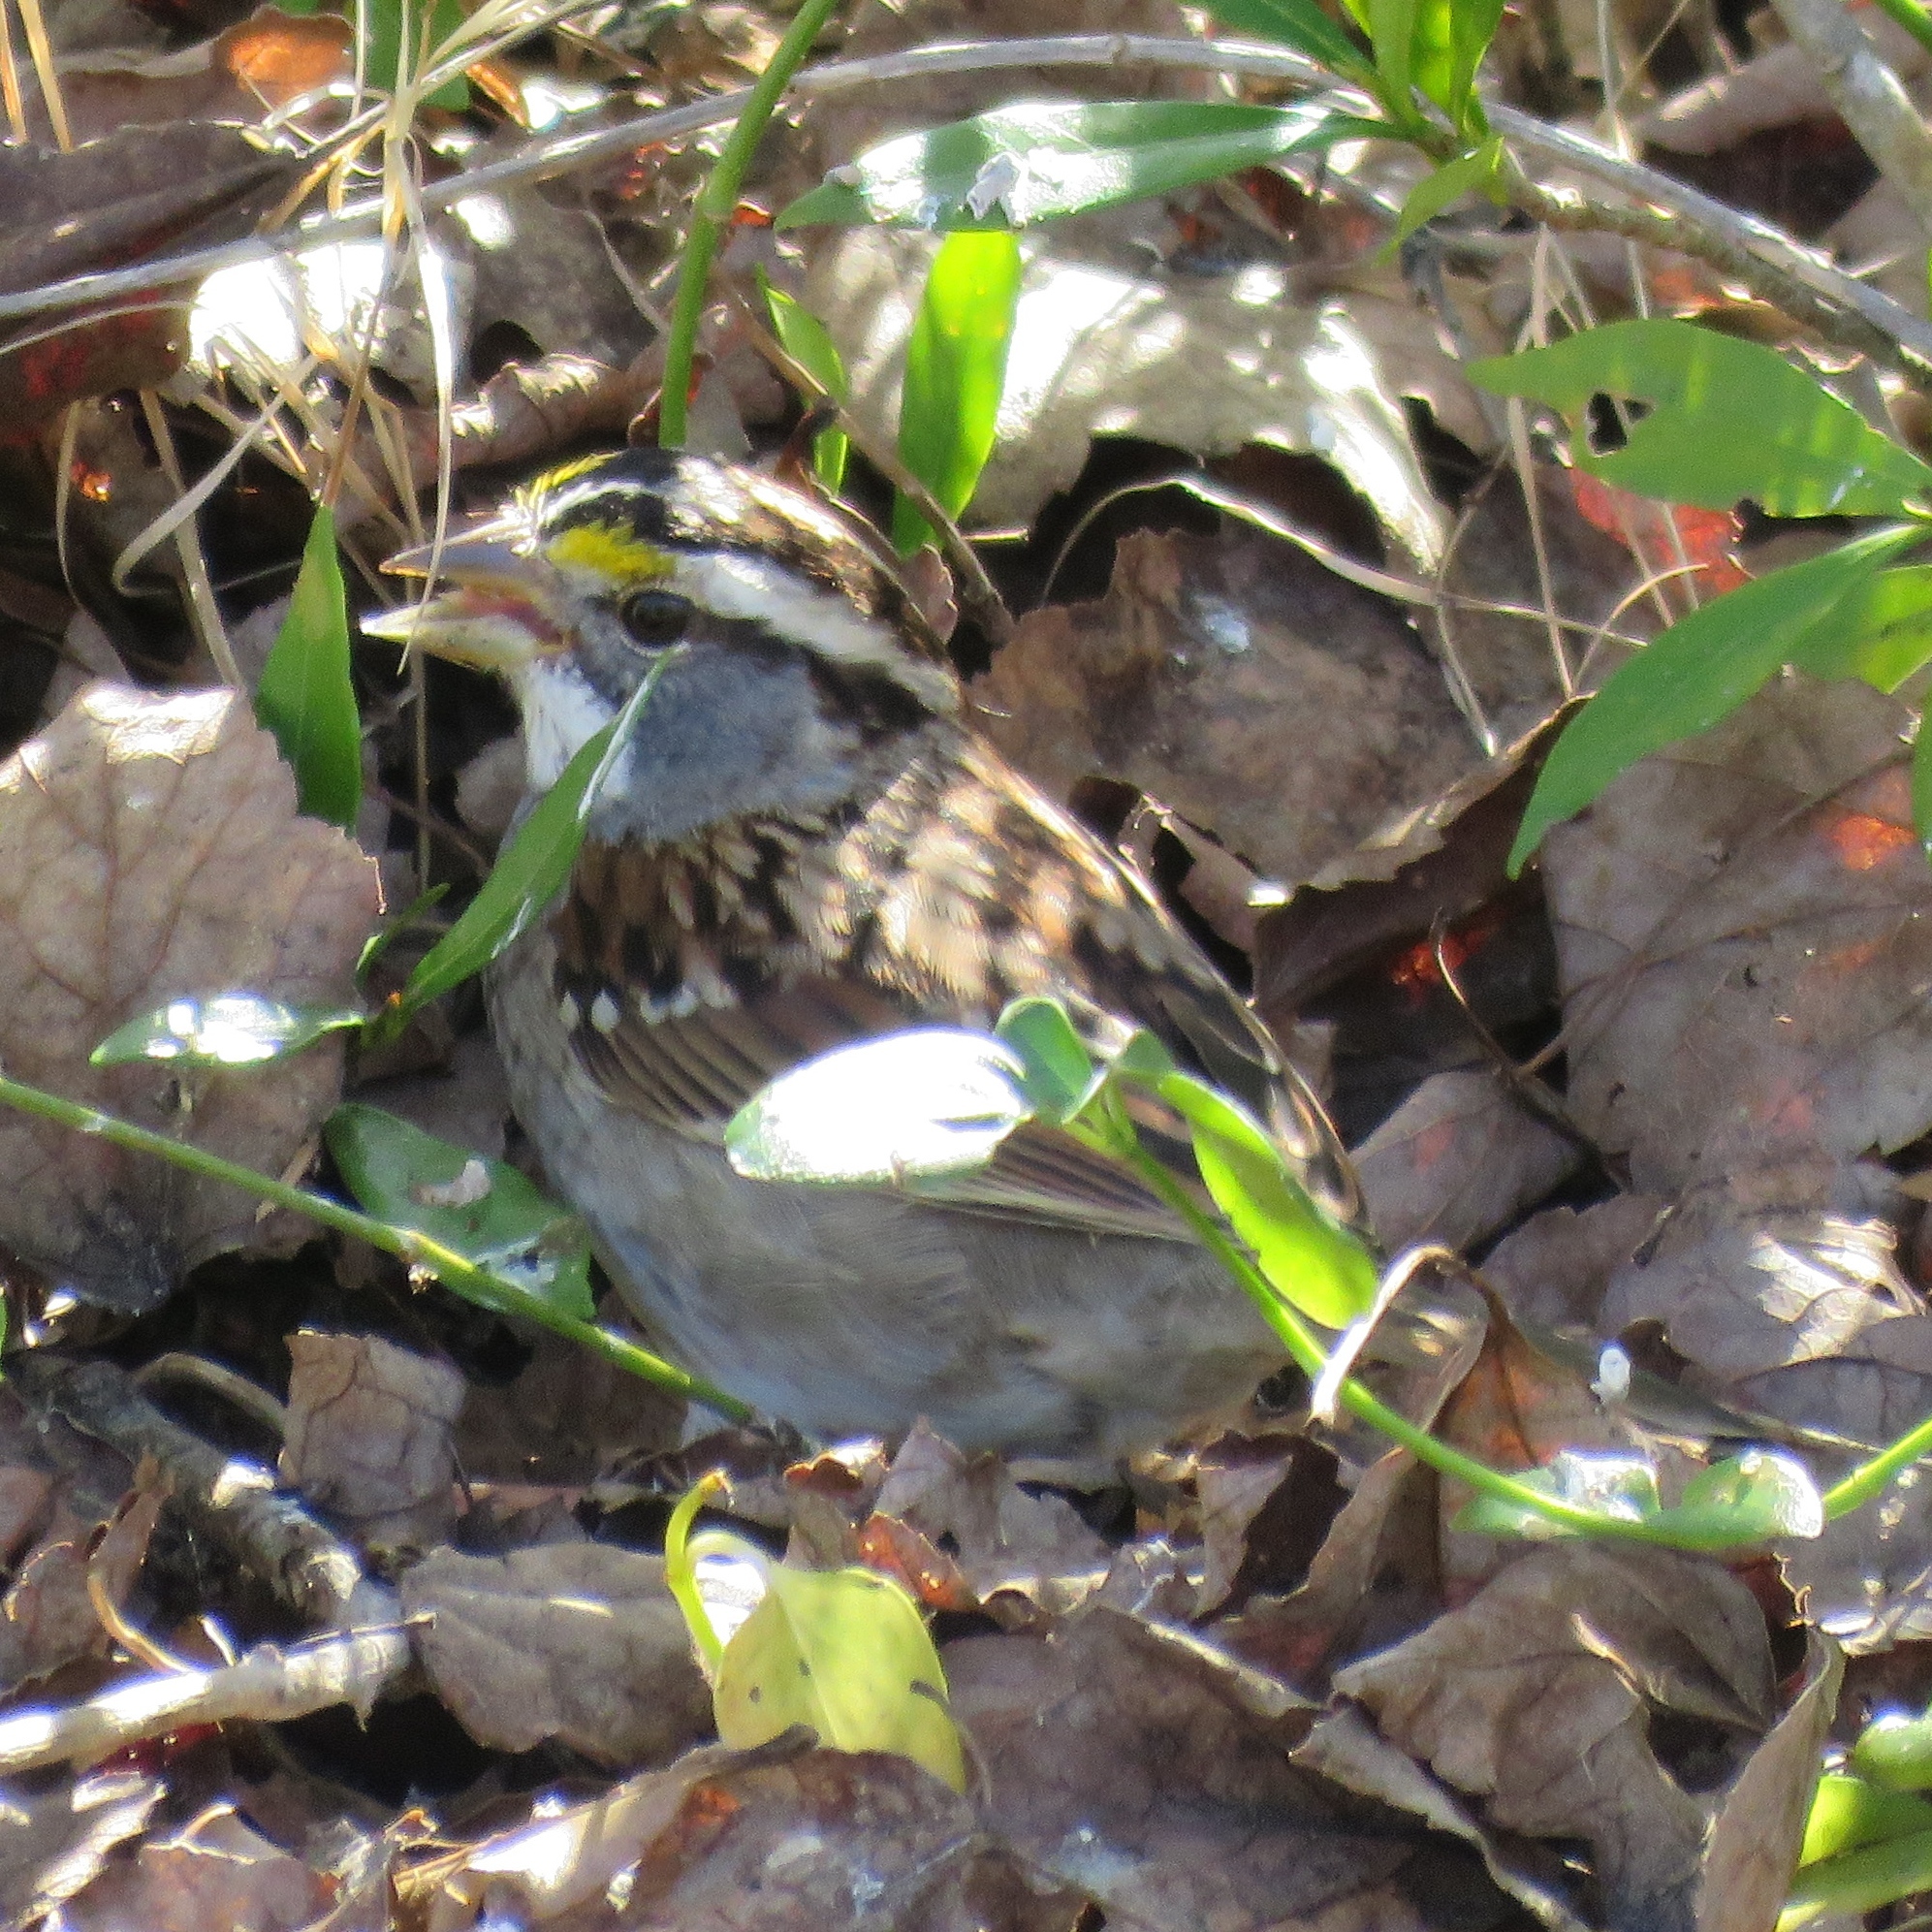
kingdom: Animalia
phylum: Chordata
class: Aves
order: Passeriformes
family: Passerellidae
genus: Zonotrichia
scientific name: Zonotrichia albicollis
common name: White-throated sparrow
